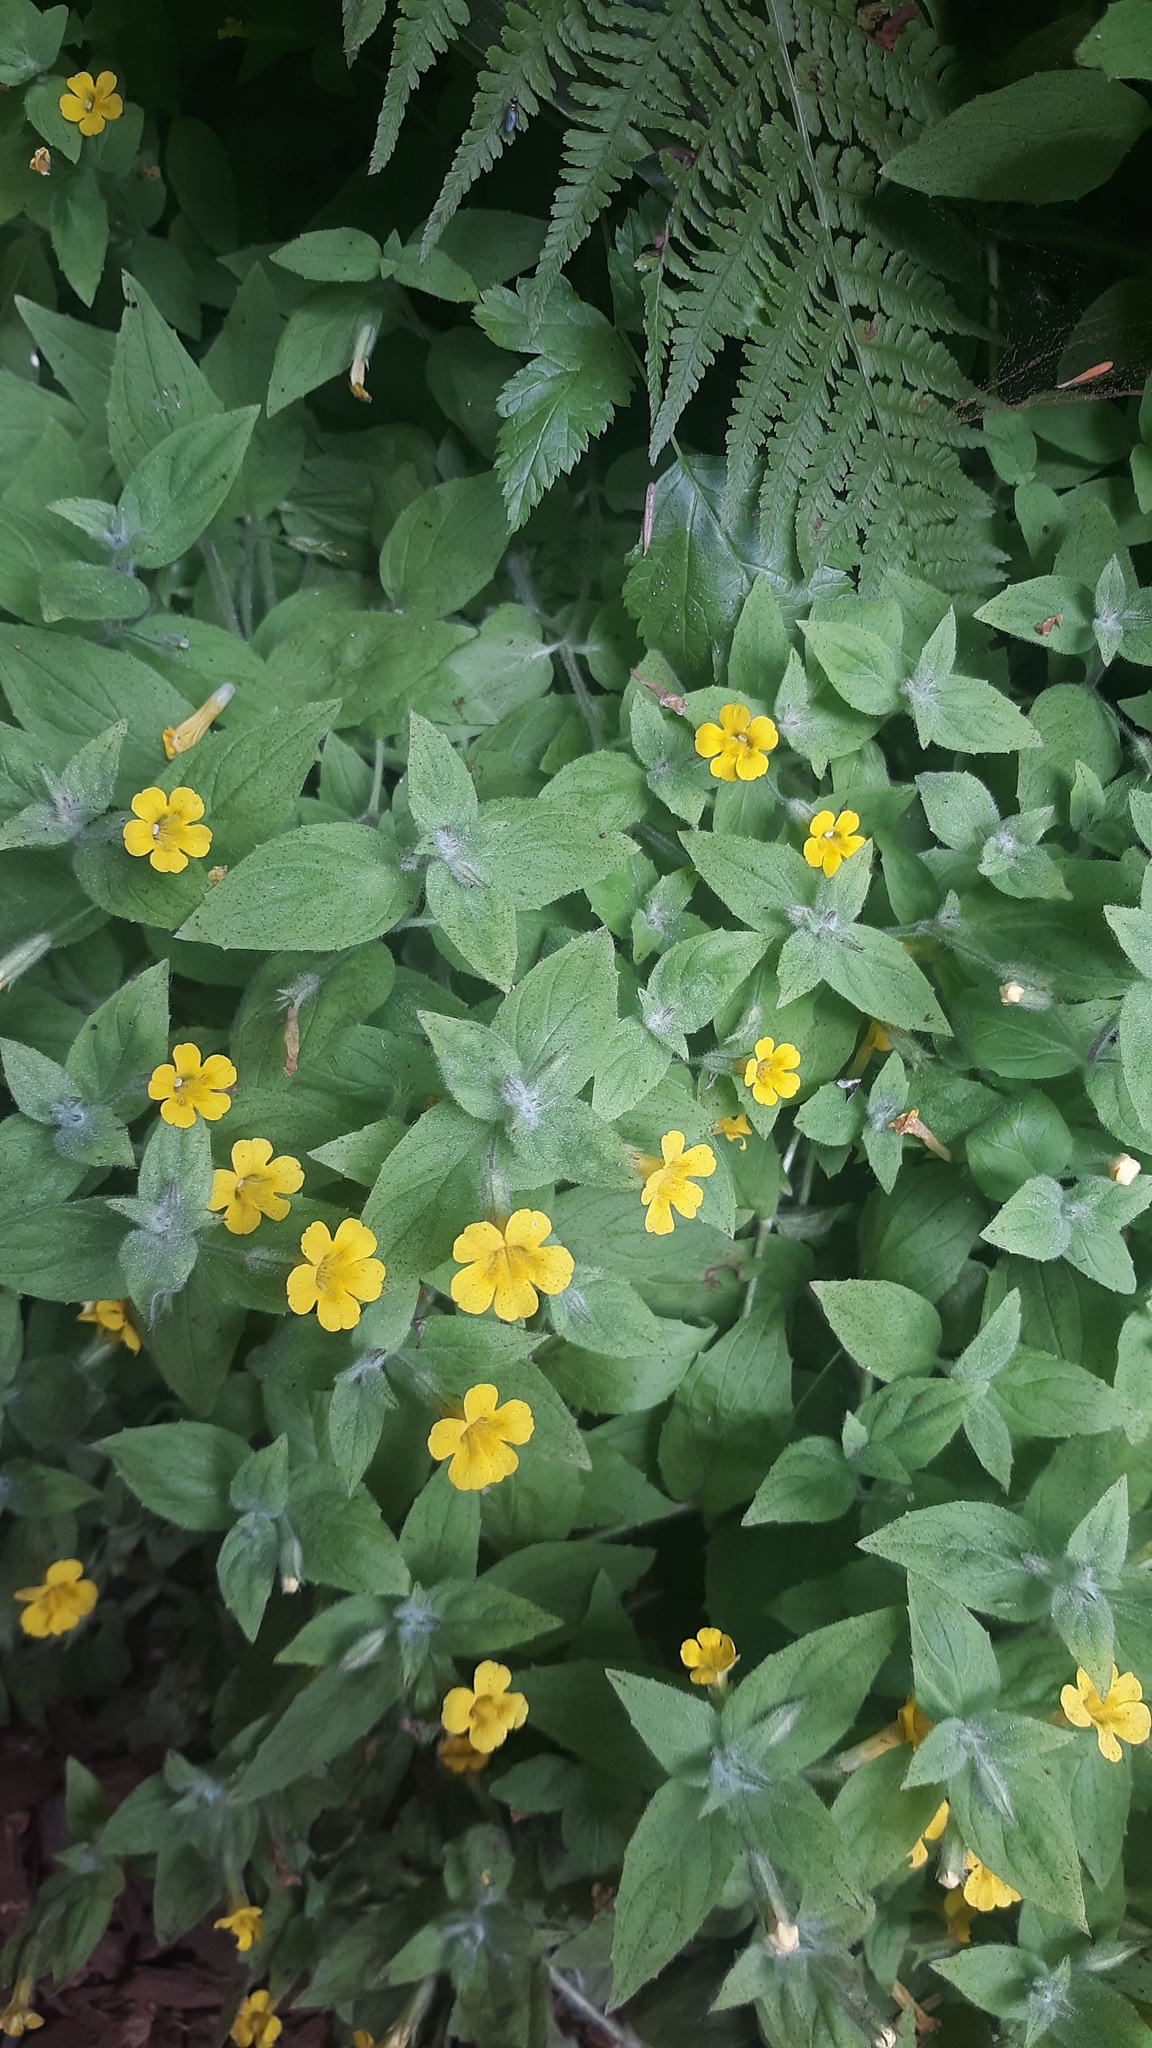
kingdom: Plantae
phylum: Tracheophyta
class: Magnoliopsida
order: Lamiales
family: Phrymaceae
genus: Erythranthe
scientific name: Erythranthe ptilota
